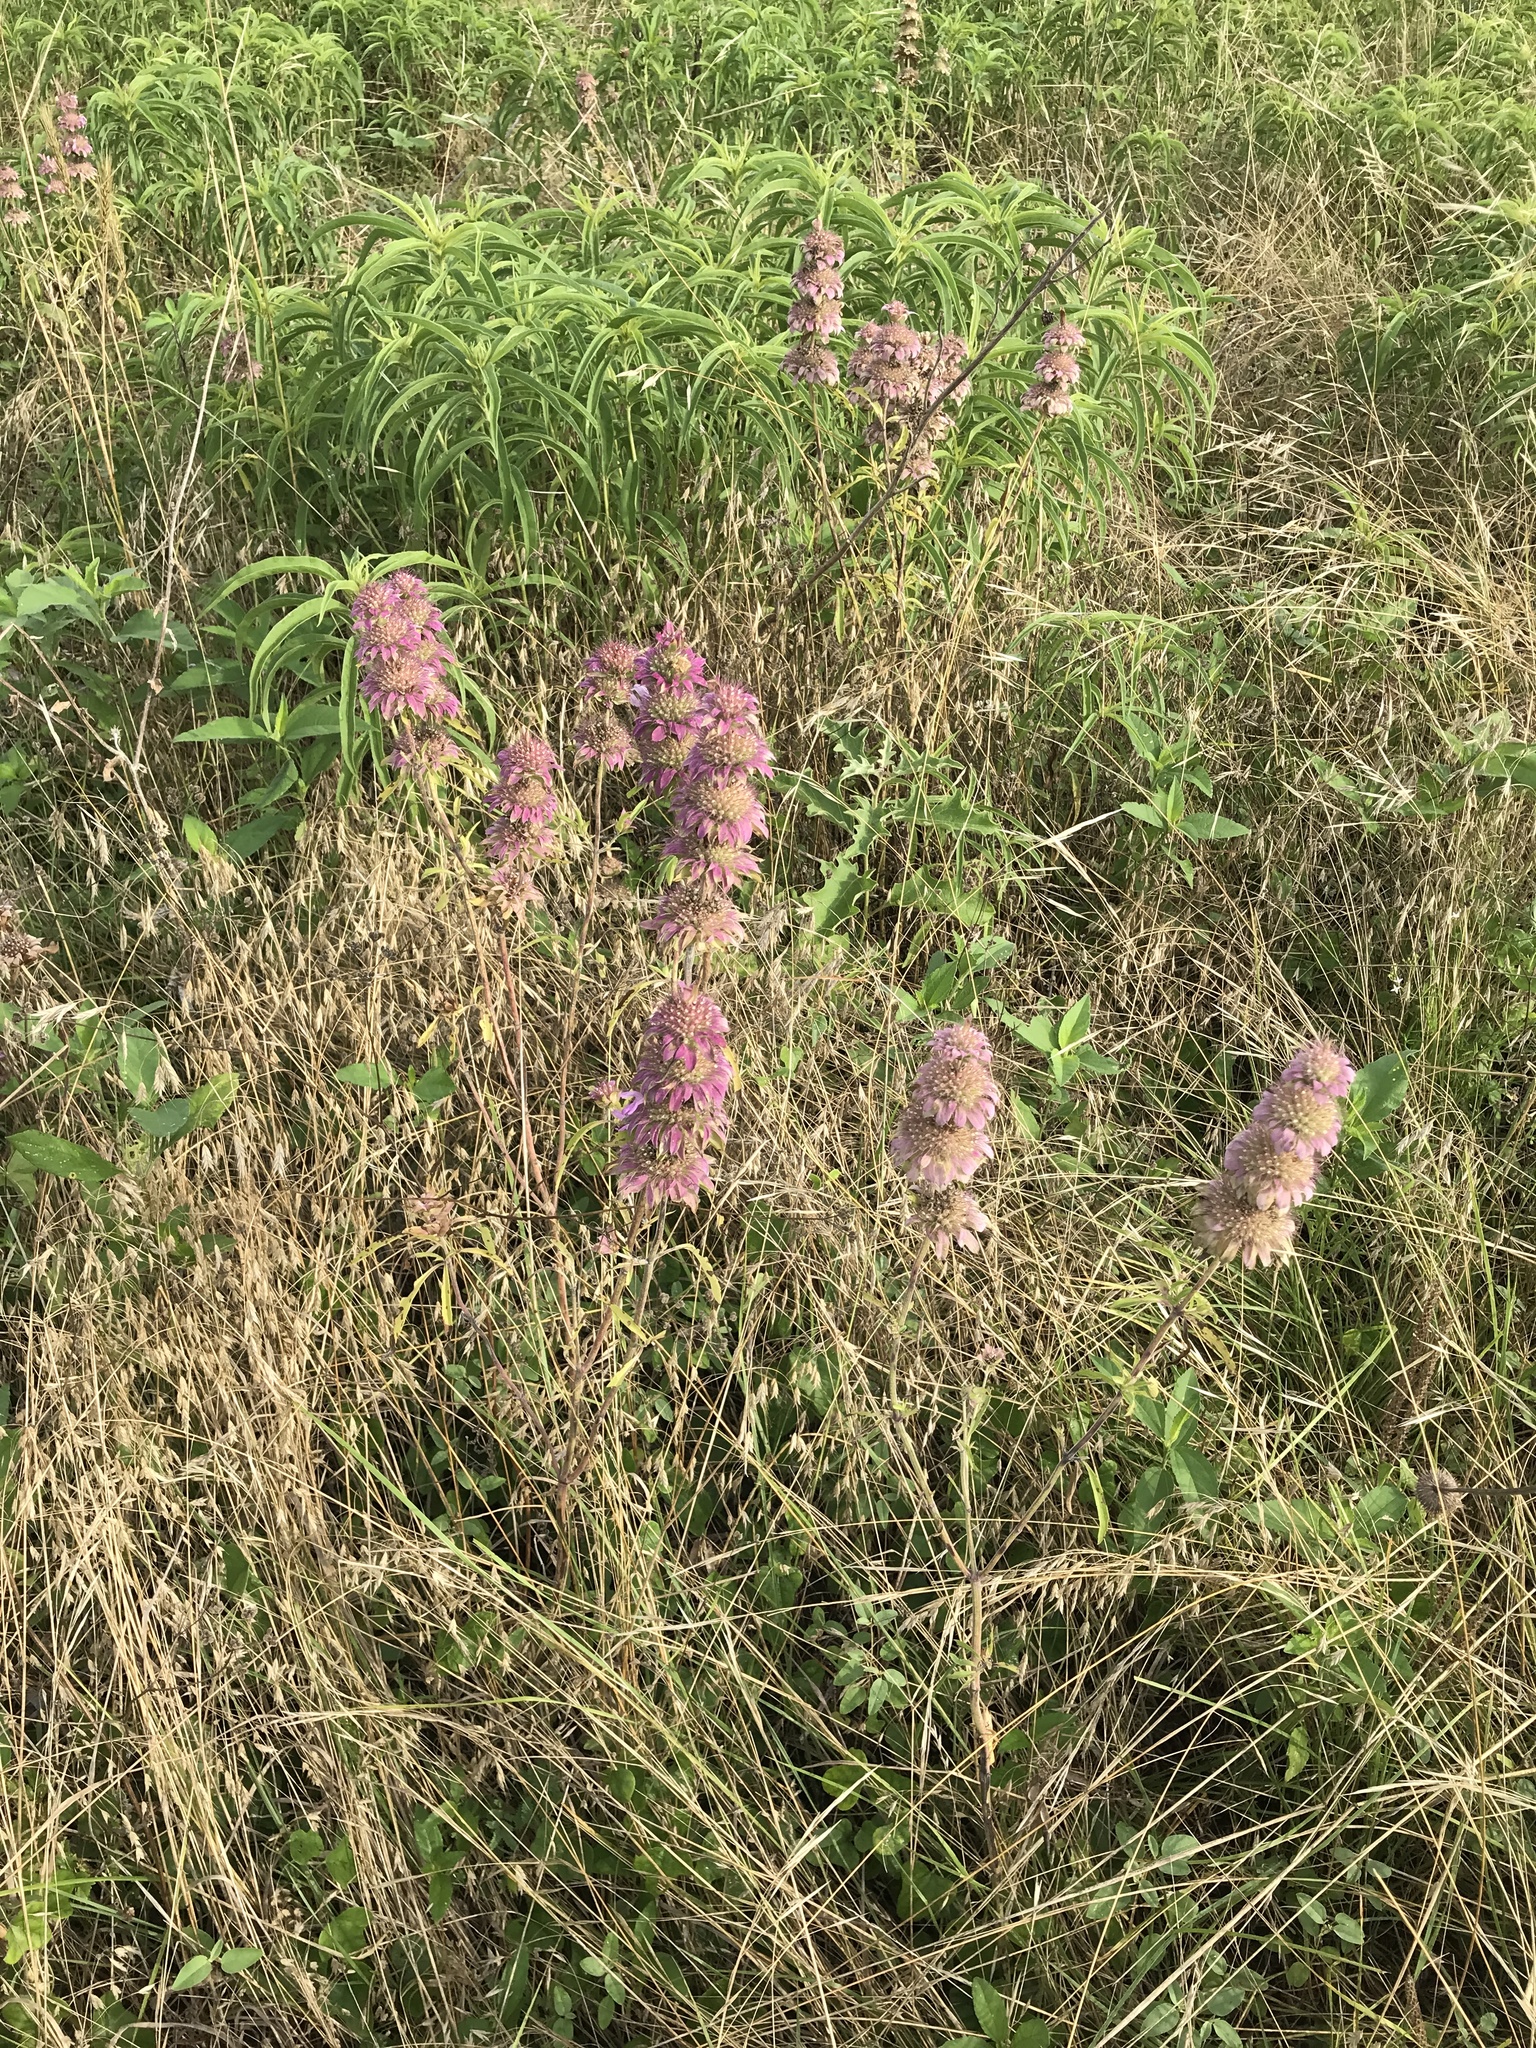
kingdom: Plantae
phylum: Tracheophyta
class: Magnoliopsida
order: Lamiales
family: Lamiaceae
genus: Monarda
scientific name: Monarda citriodora
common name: Lemon beebalm
